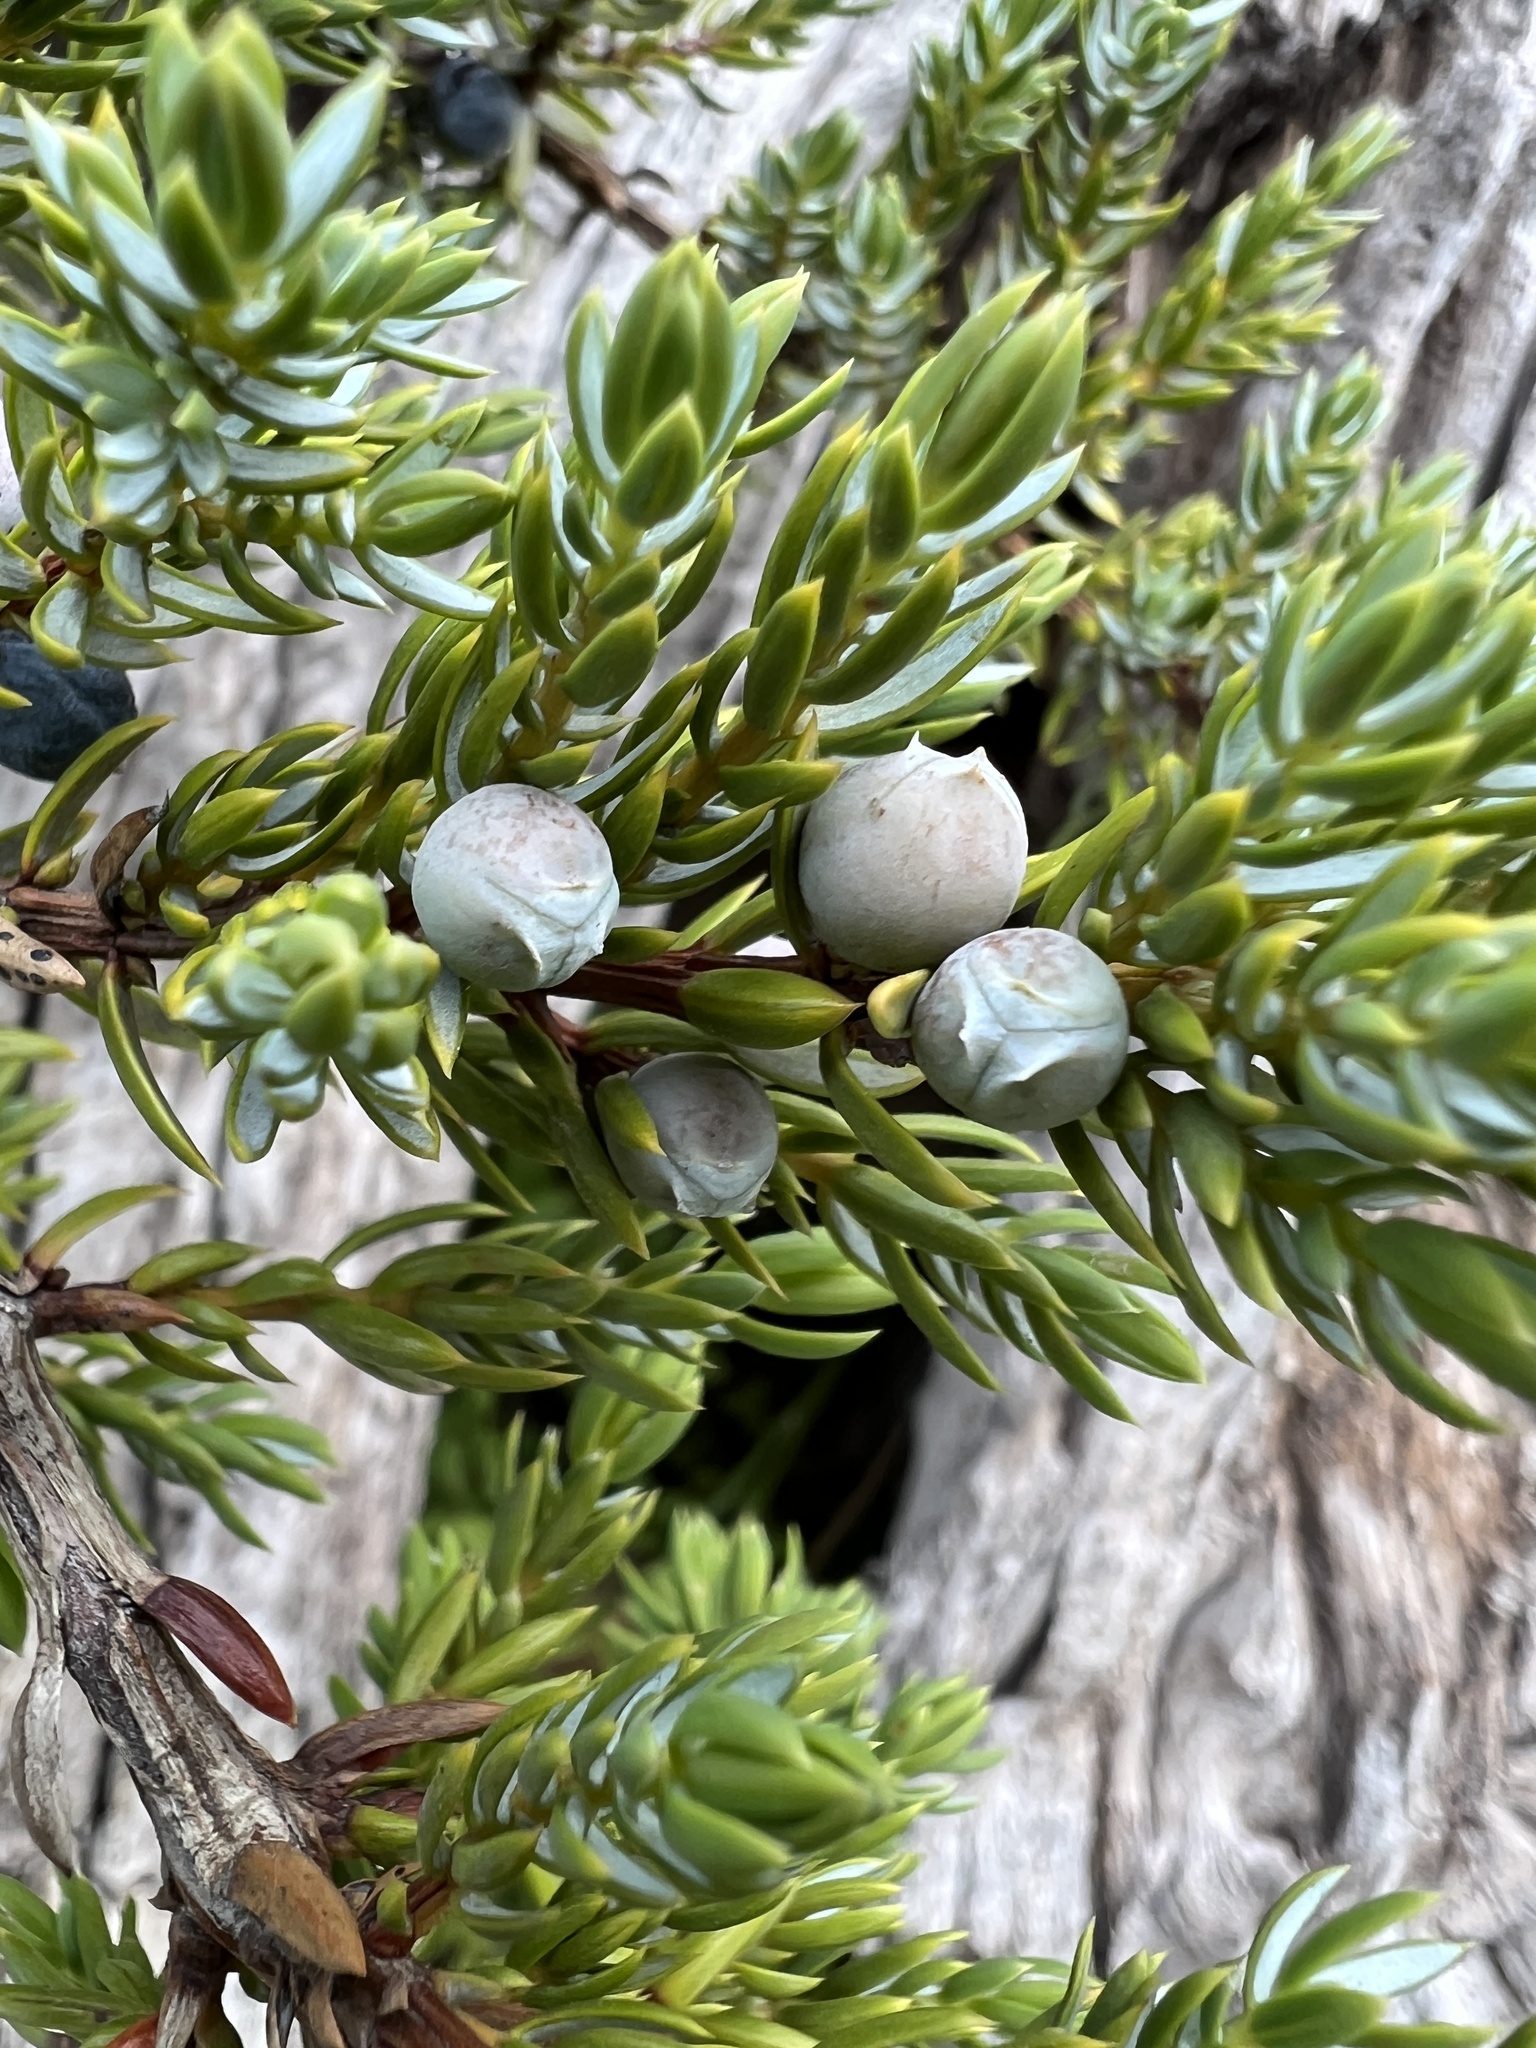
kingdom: Plantae
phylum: Tracheophyta
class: Pinopsida
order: Pinales
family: Cupressaceae
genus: Juniperus
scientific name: Juniperus communis
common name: Common juniper
